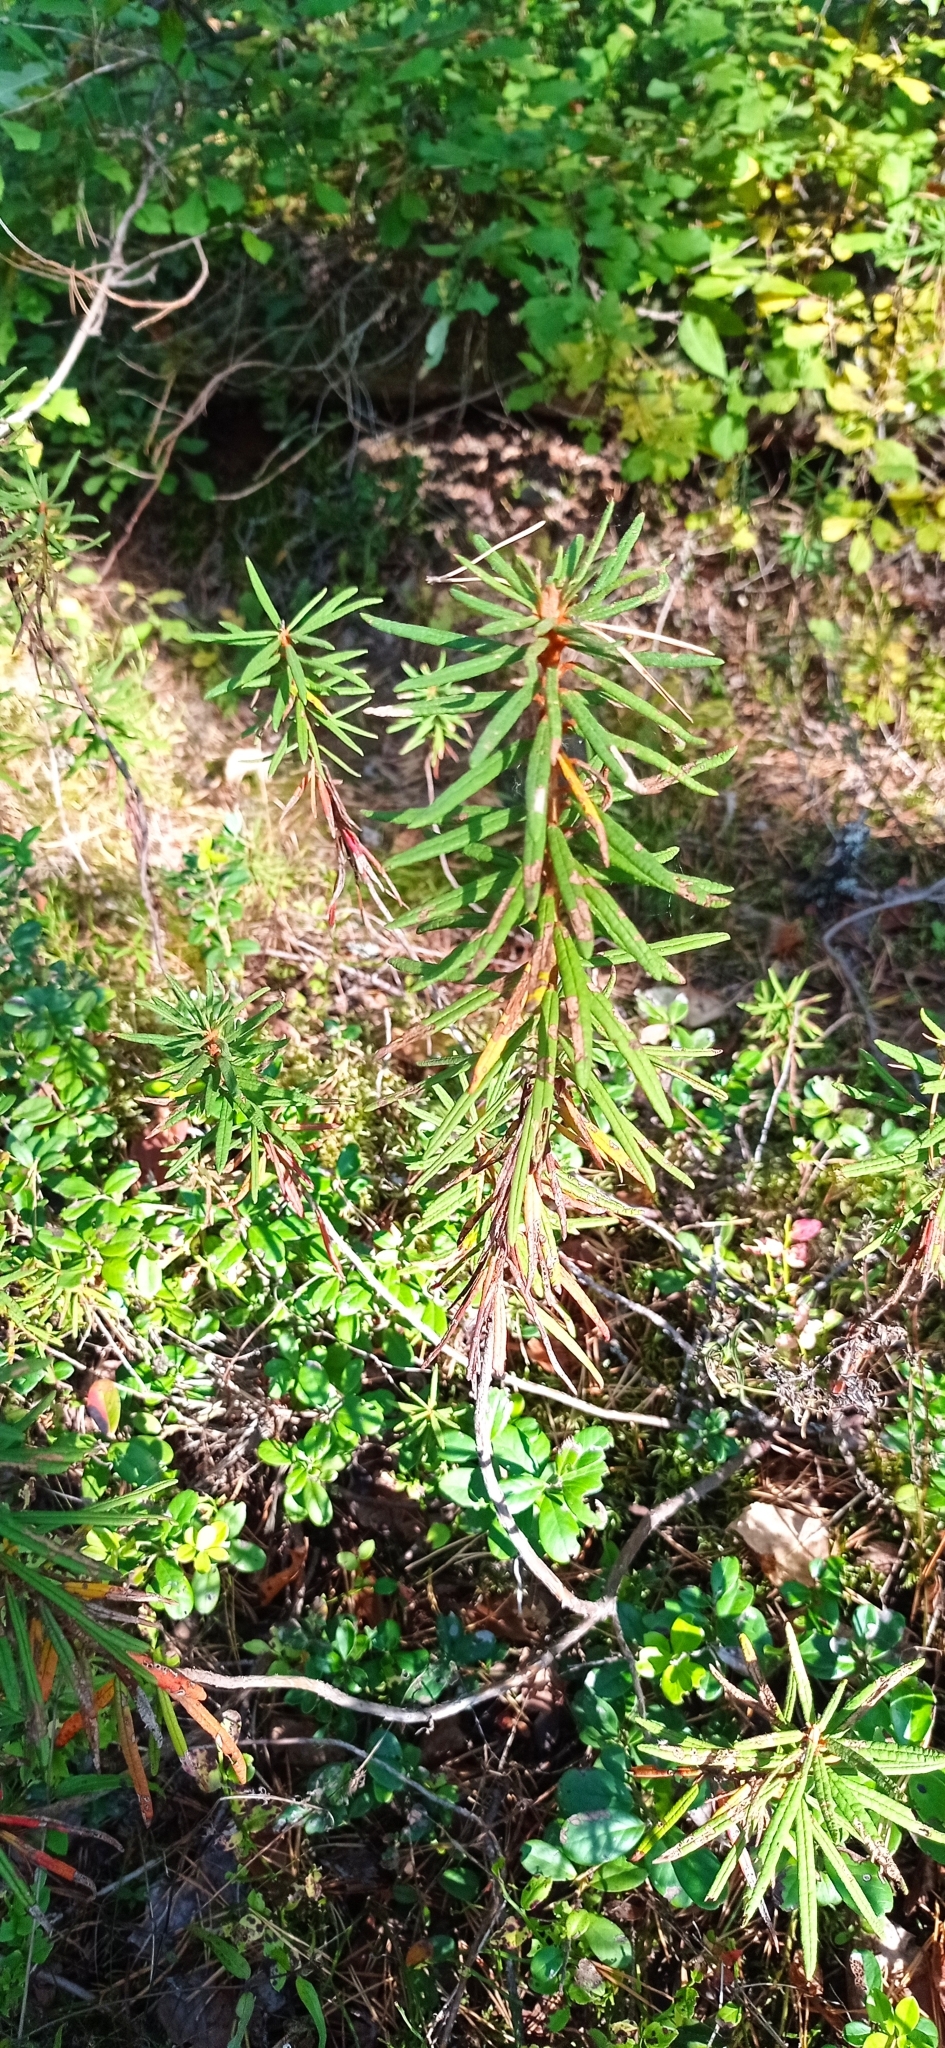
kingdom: Plantae
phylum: Tracheophyta
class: Magnoliopsida
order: Ericales
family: Ericaceae
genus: Rhododendron
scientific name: Rhododendron tomentosum
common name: Marsh labrador tea
